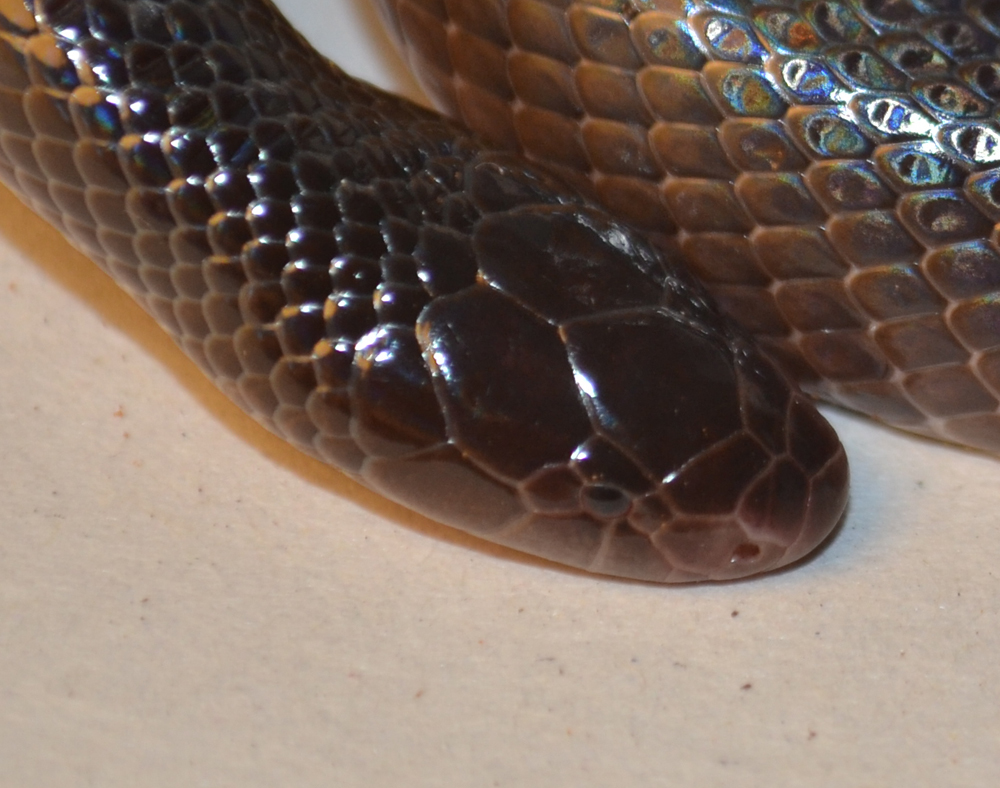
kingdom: Animalia
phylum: Chordata
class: Squamata
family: Atractaspididae
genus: Atractaspis
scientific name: Atractaspis bibronii
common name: Bibron's burrowing asp
